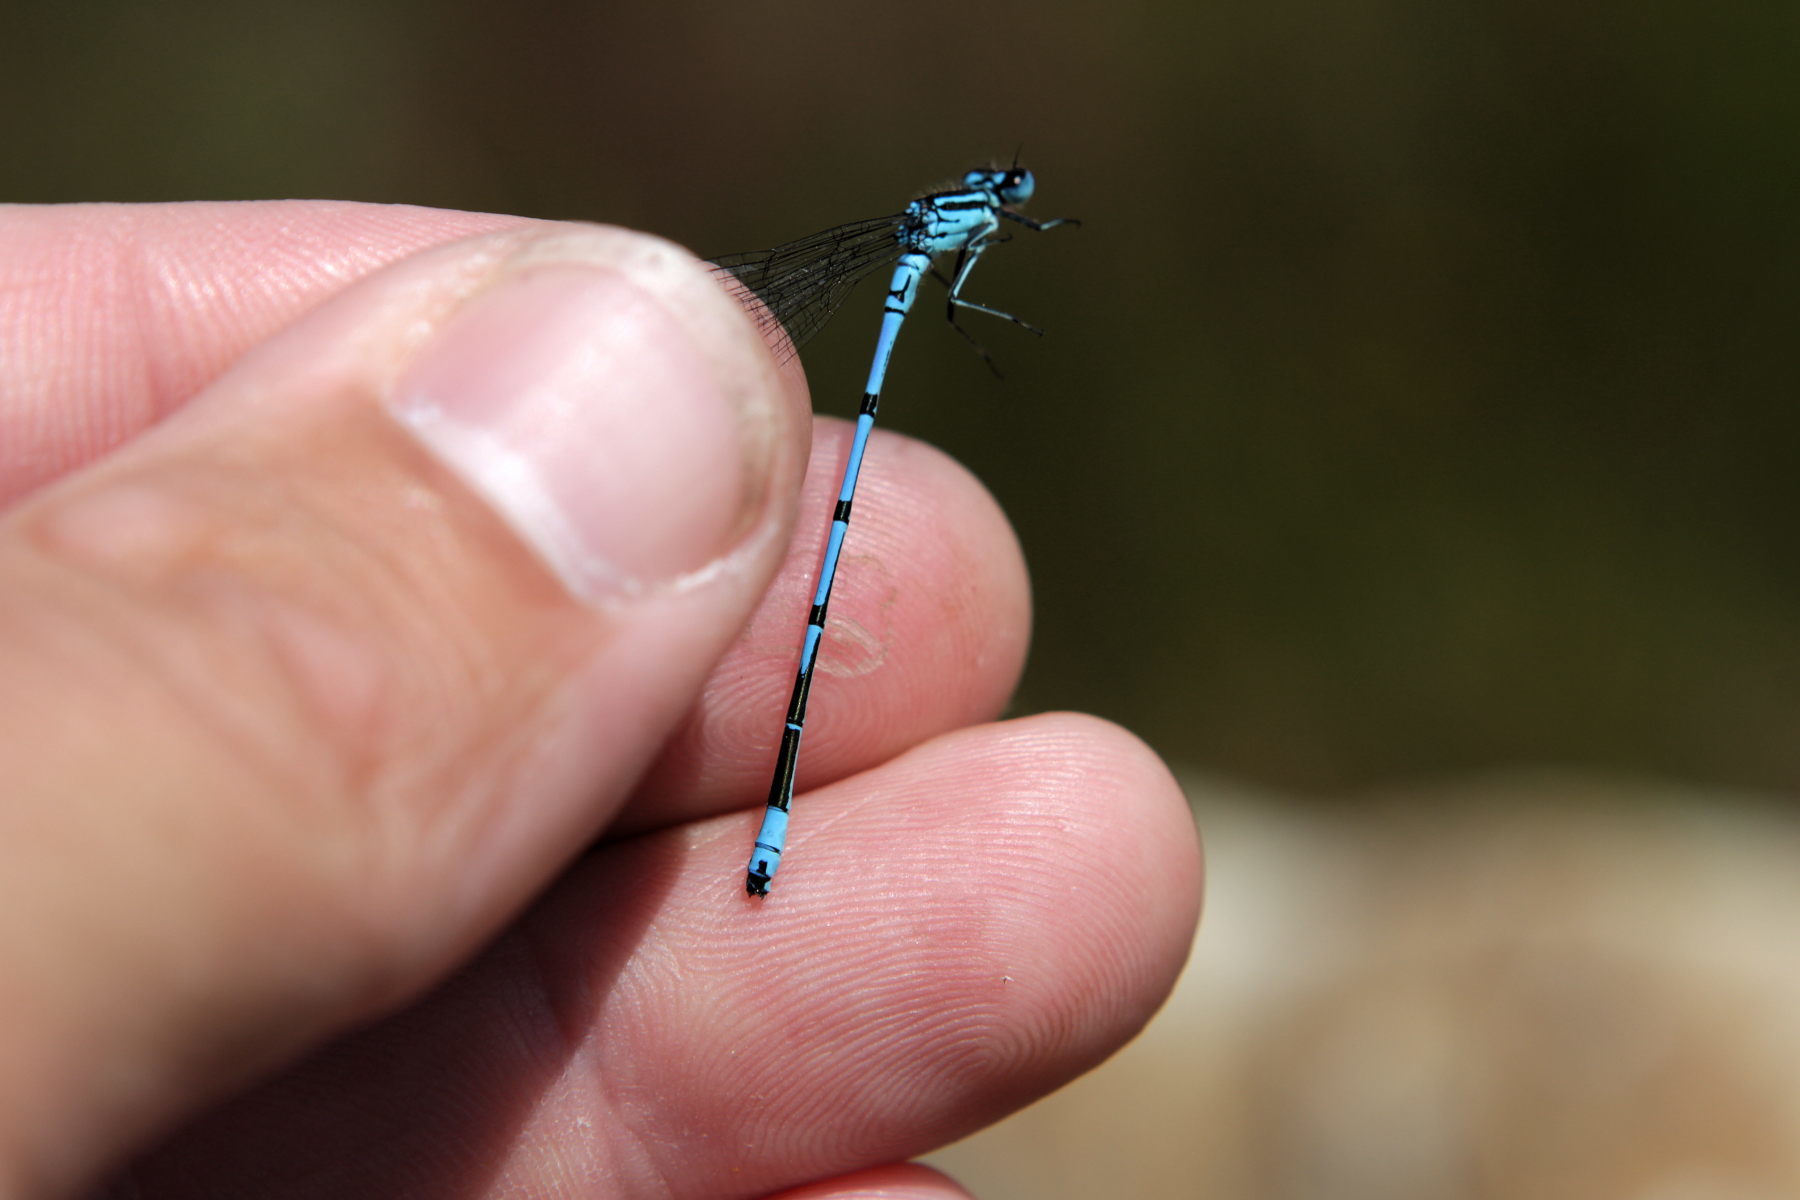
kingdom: Animalia
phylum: Arthropoda
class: Insecta
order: Odonata
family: Coenagrionidae
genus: Coenagrion
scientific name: Coenagrion puella
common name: Azure damselfly
